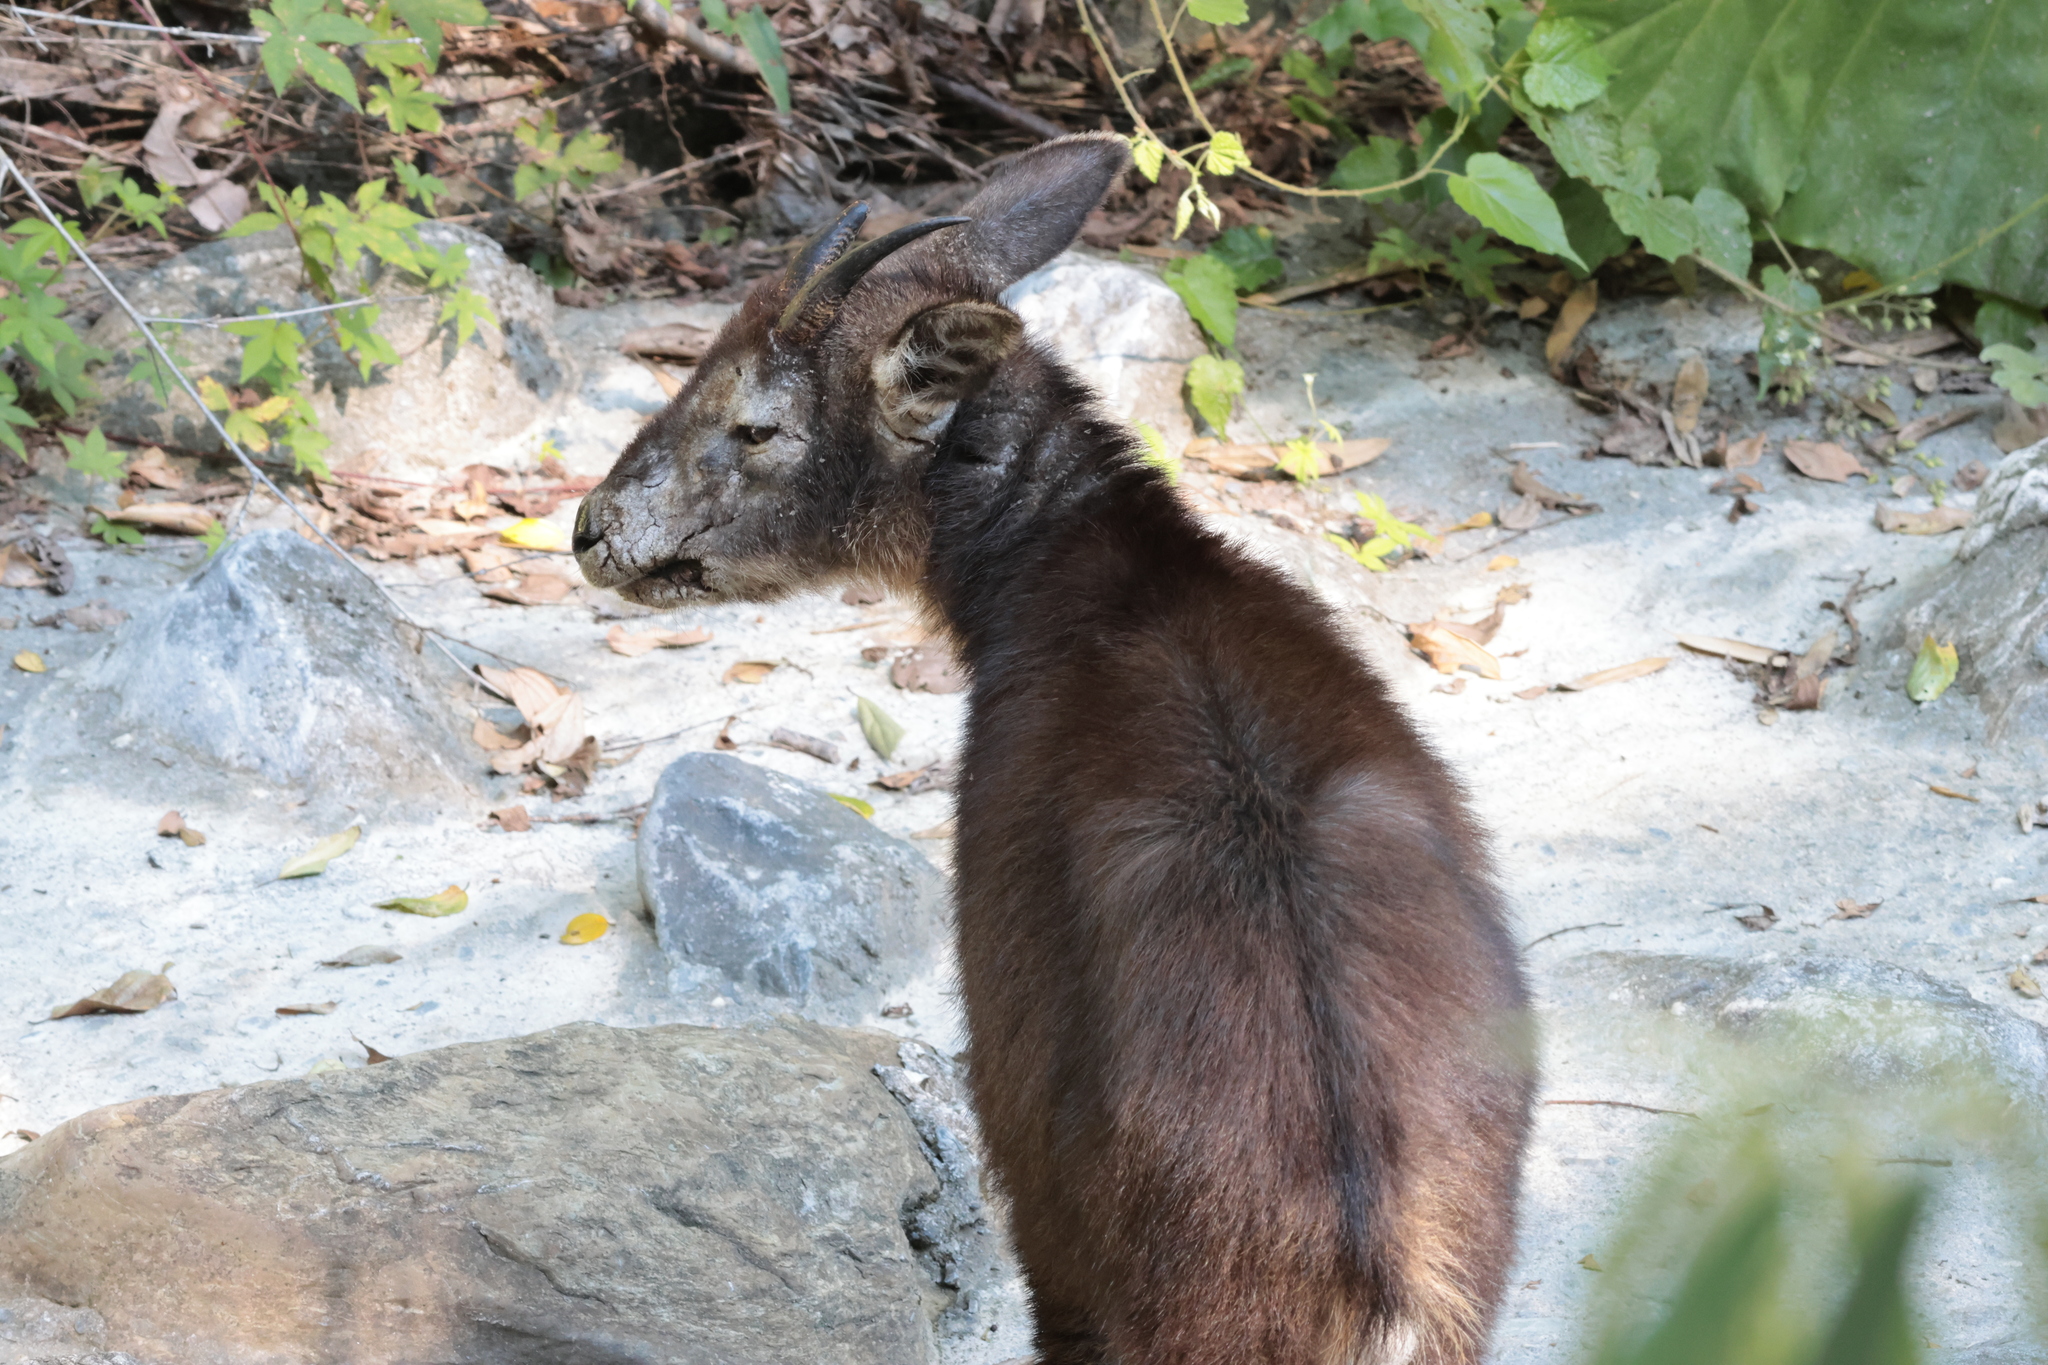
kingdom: Animalia
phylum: Chordata
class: Mammalia
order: Artiodactyla
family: Bovidae
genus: Capricornis
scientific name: Capricornis swinhoei
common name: Formosan serow
